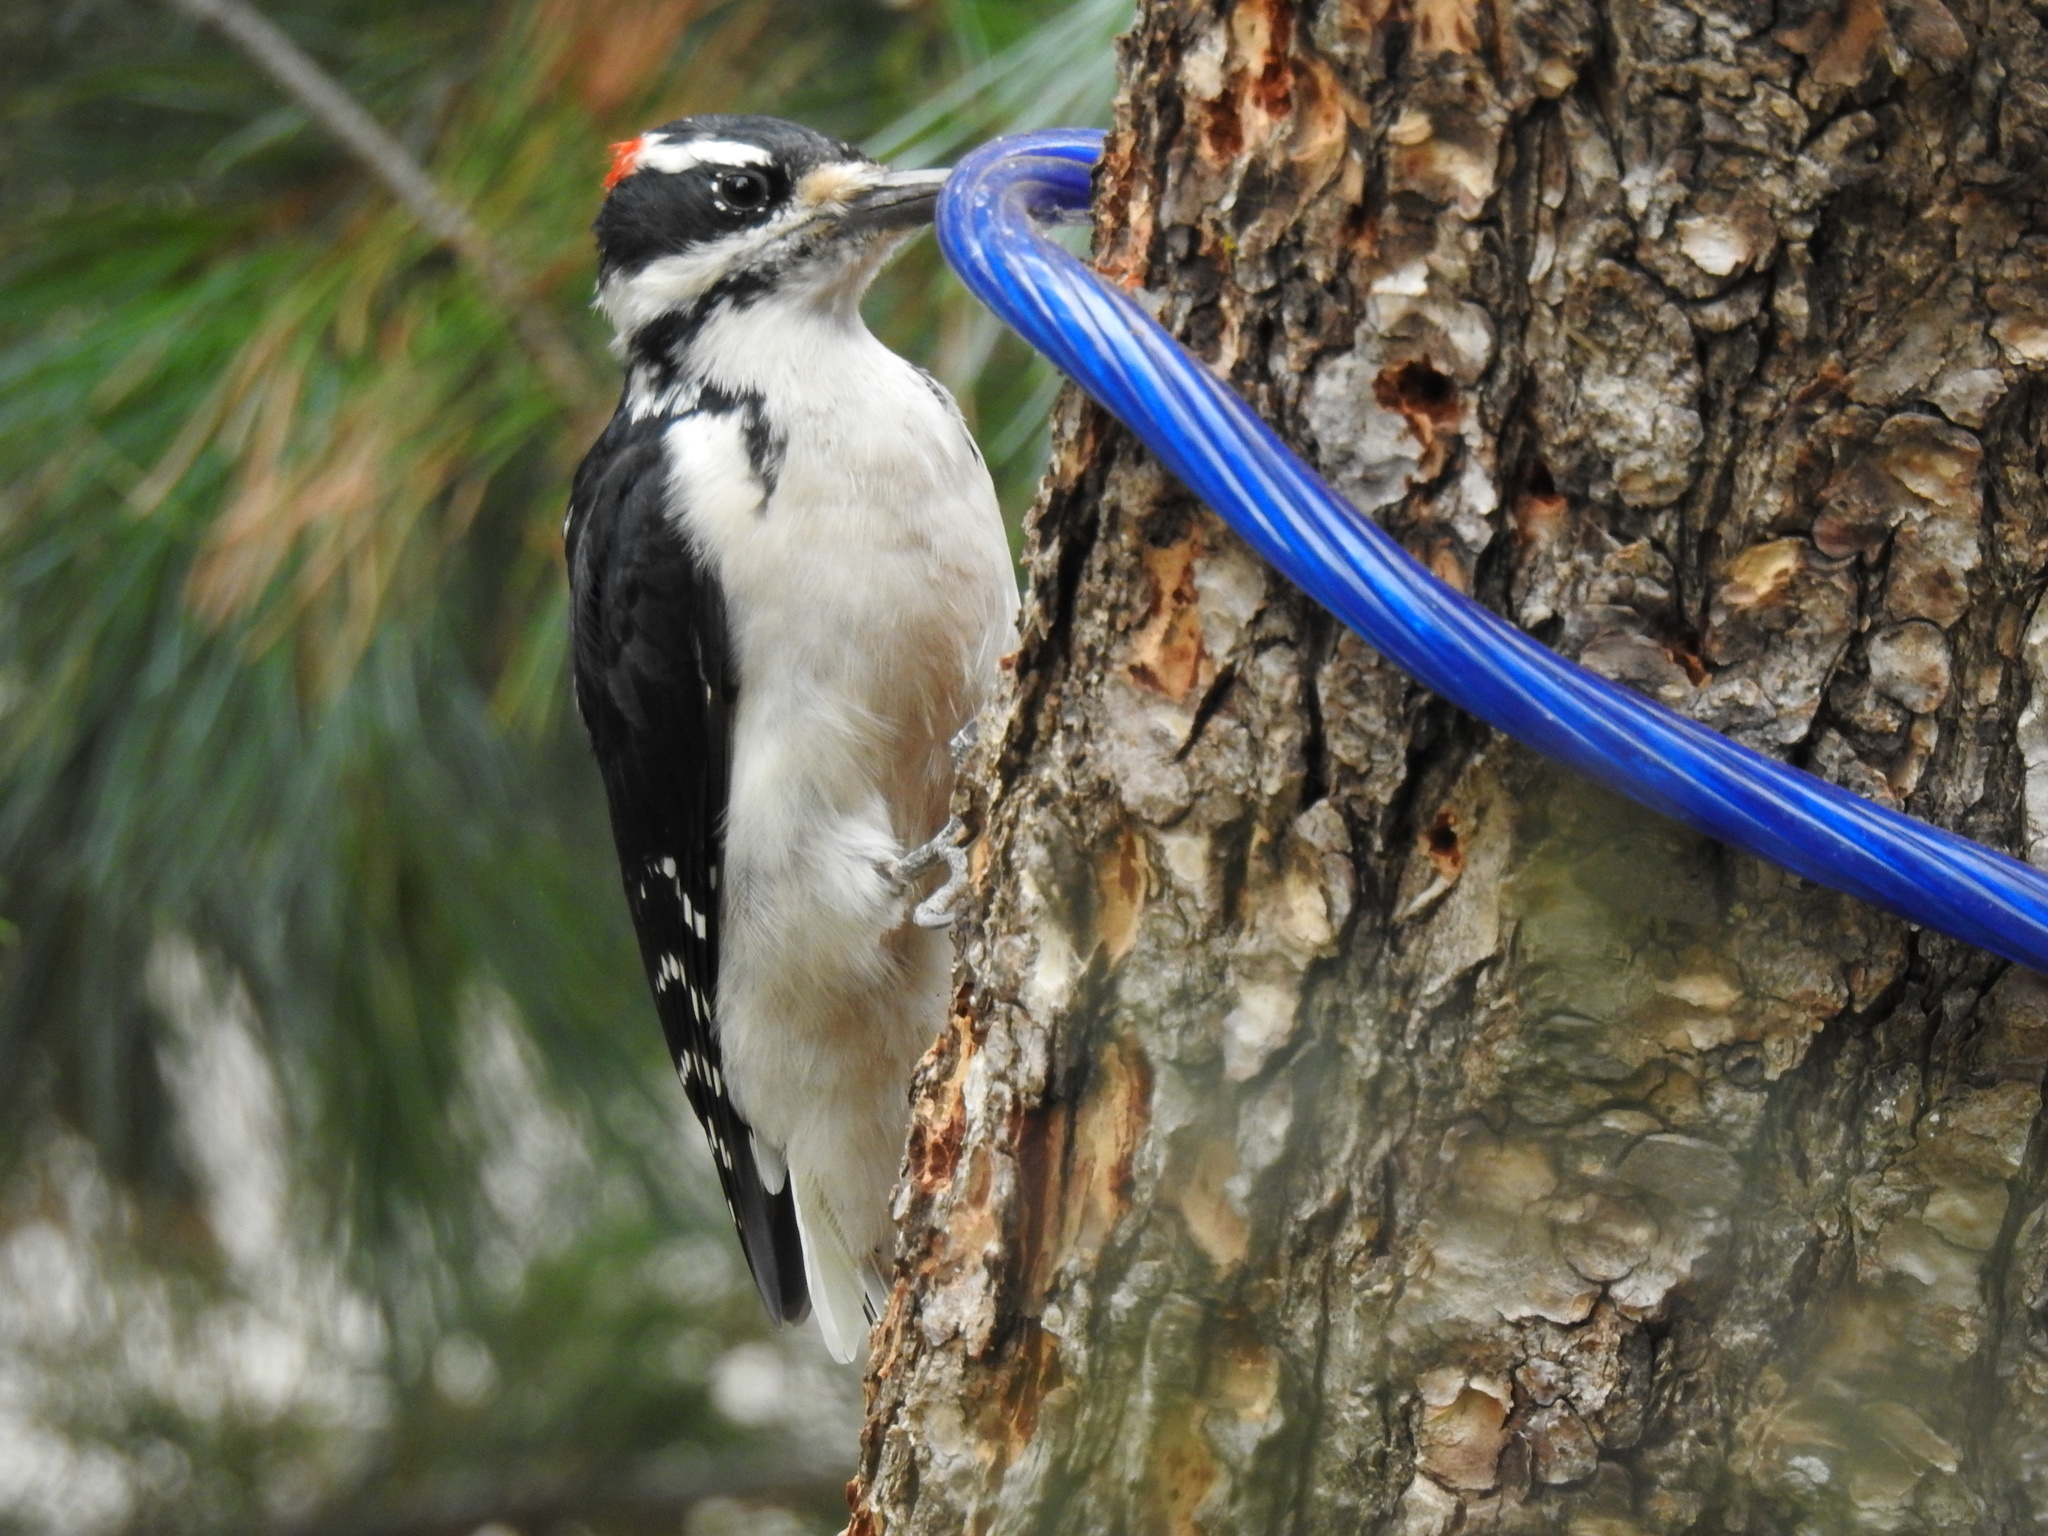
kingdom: Animalia
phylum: Chordata
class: Aves
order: Piciformes
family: Picidae
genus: Leuconotopicus
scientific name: Leuconotopicus villosus
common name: Hairy woodpecker
